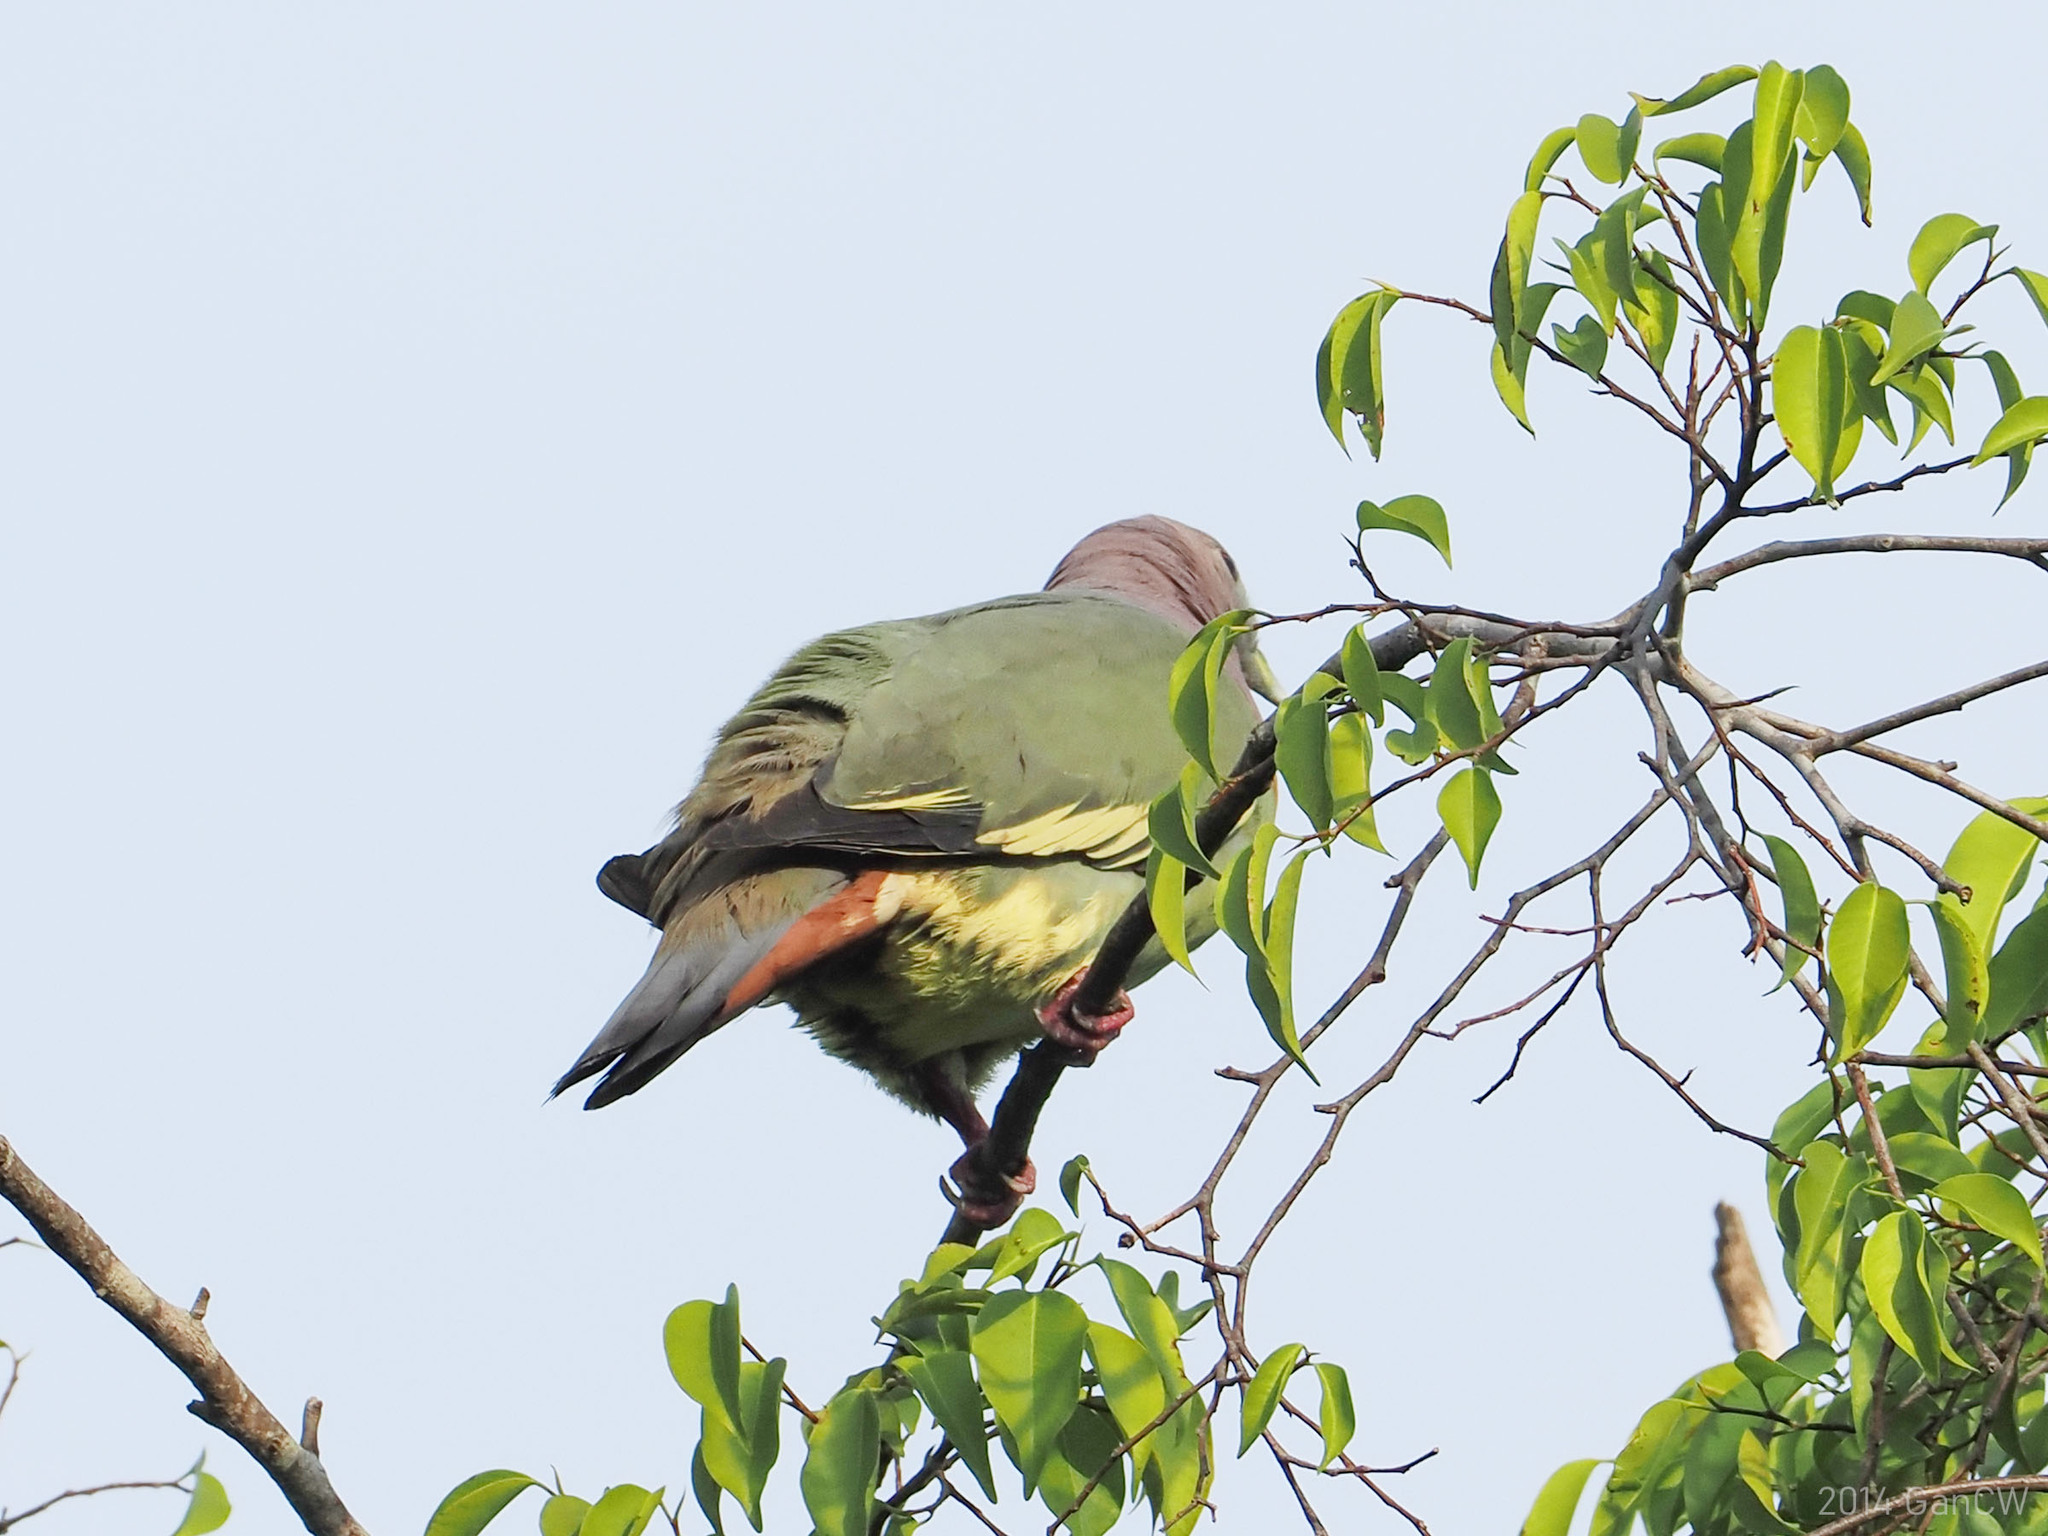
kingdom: Animalia
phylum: Chordata
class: Aves
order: Columbiformes
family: Columbidae
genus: Treron
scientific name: Treron vernans
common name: Pink-necked green pigeon
